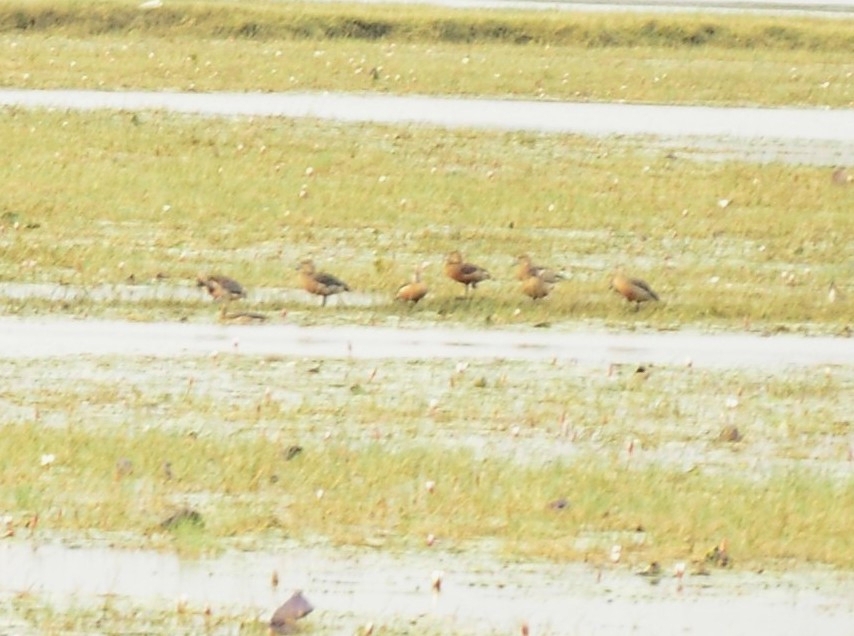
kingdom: Animalia
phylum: Chordata
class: Aves
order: Anseriformes
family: Anatidae
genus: Dendrocygna
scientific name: Dendrocygna javanica
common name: Lesser whistling-duck
